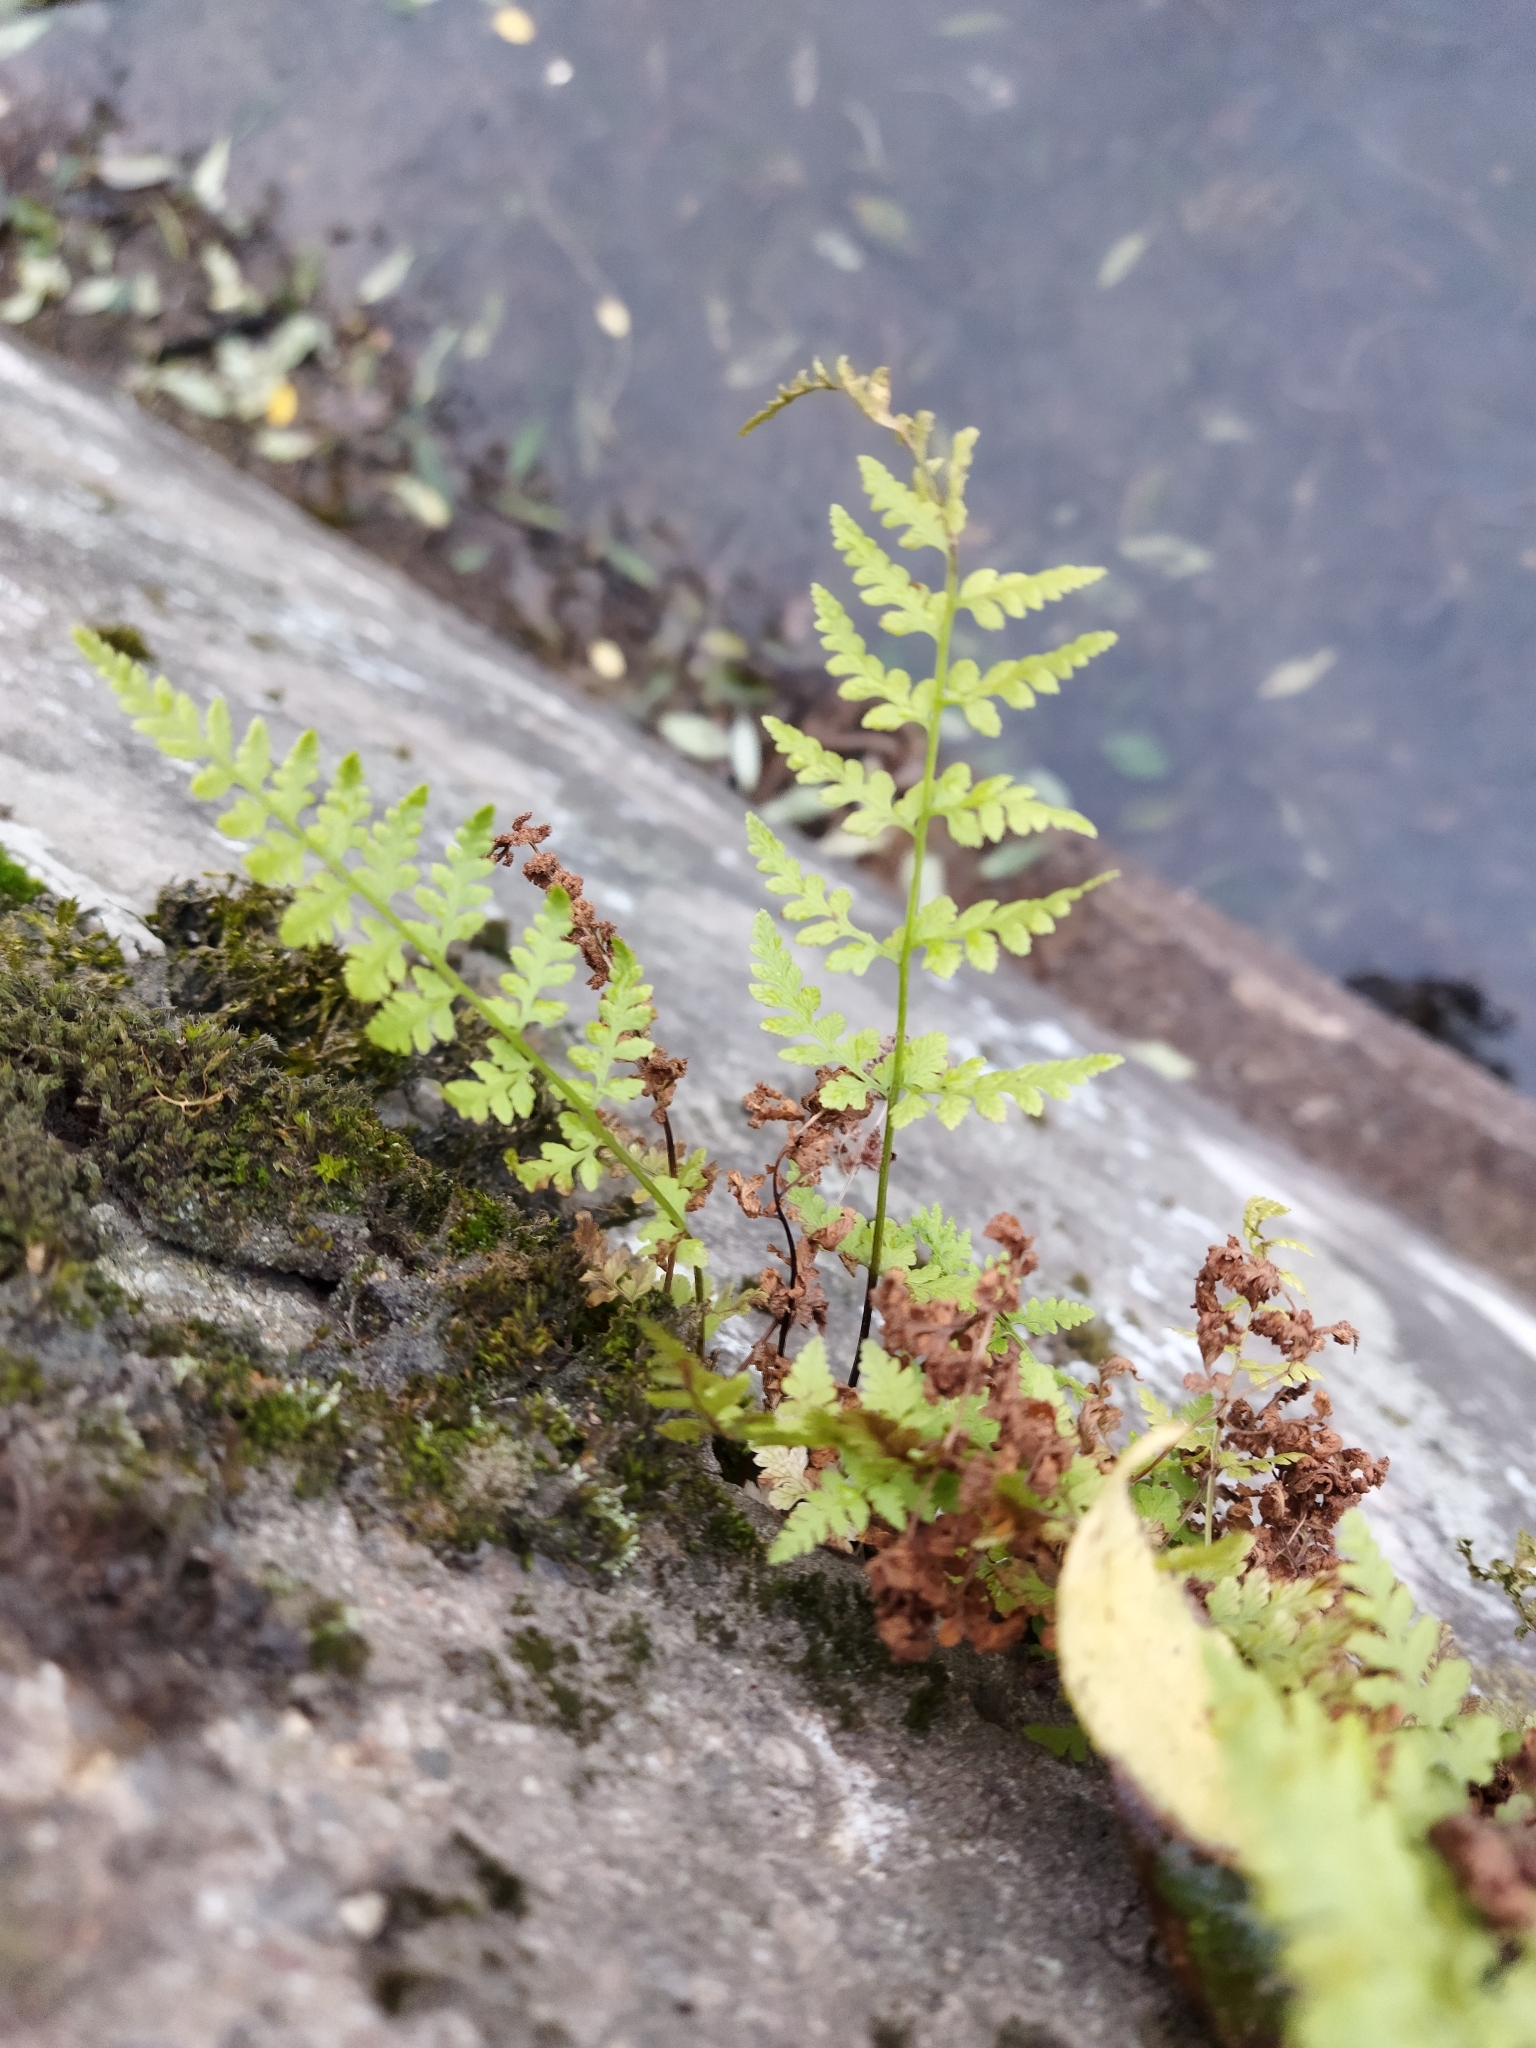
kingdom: Plantae
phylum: Tracheophyta
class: Polypodiopsida
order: Polypodiales
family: Cystopteridaceae
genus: Cystopteris
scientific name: Cystopteris fragilis
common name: Brittle bladder fern
